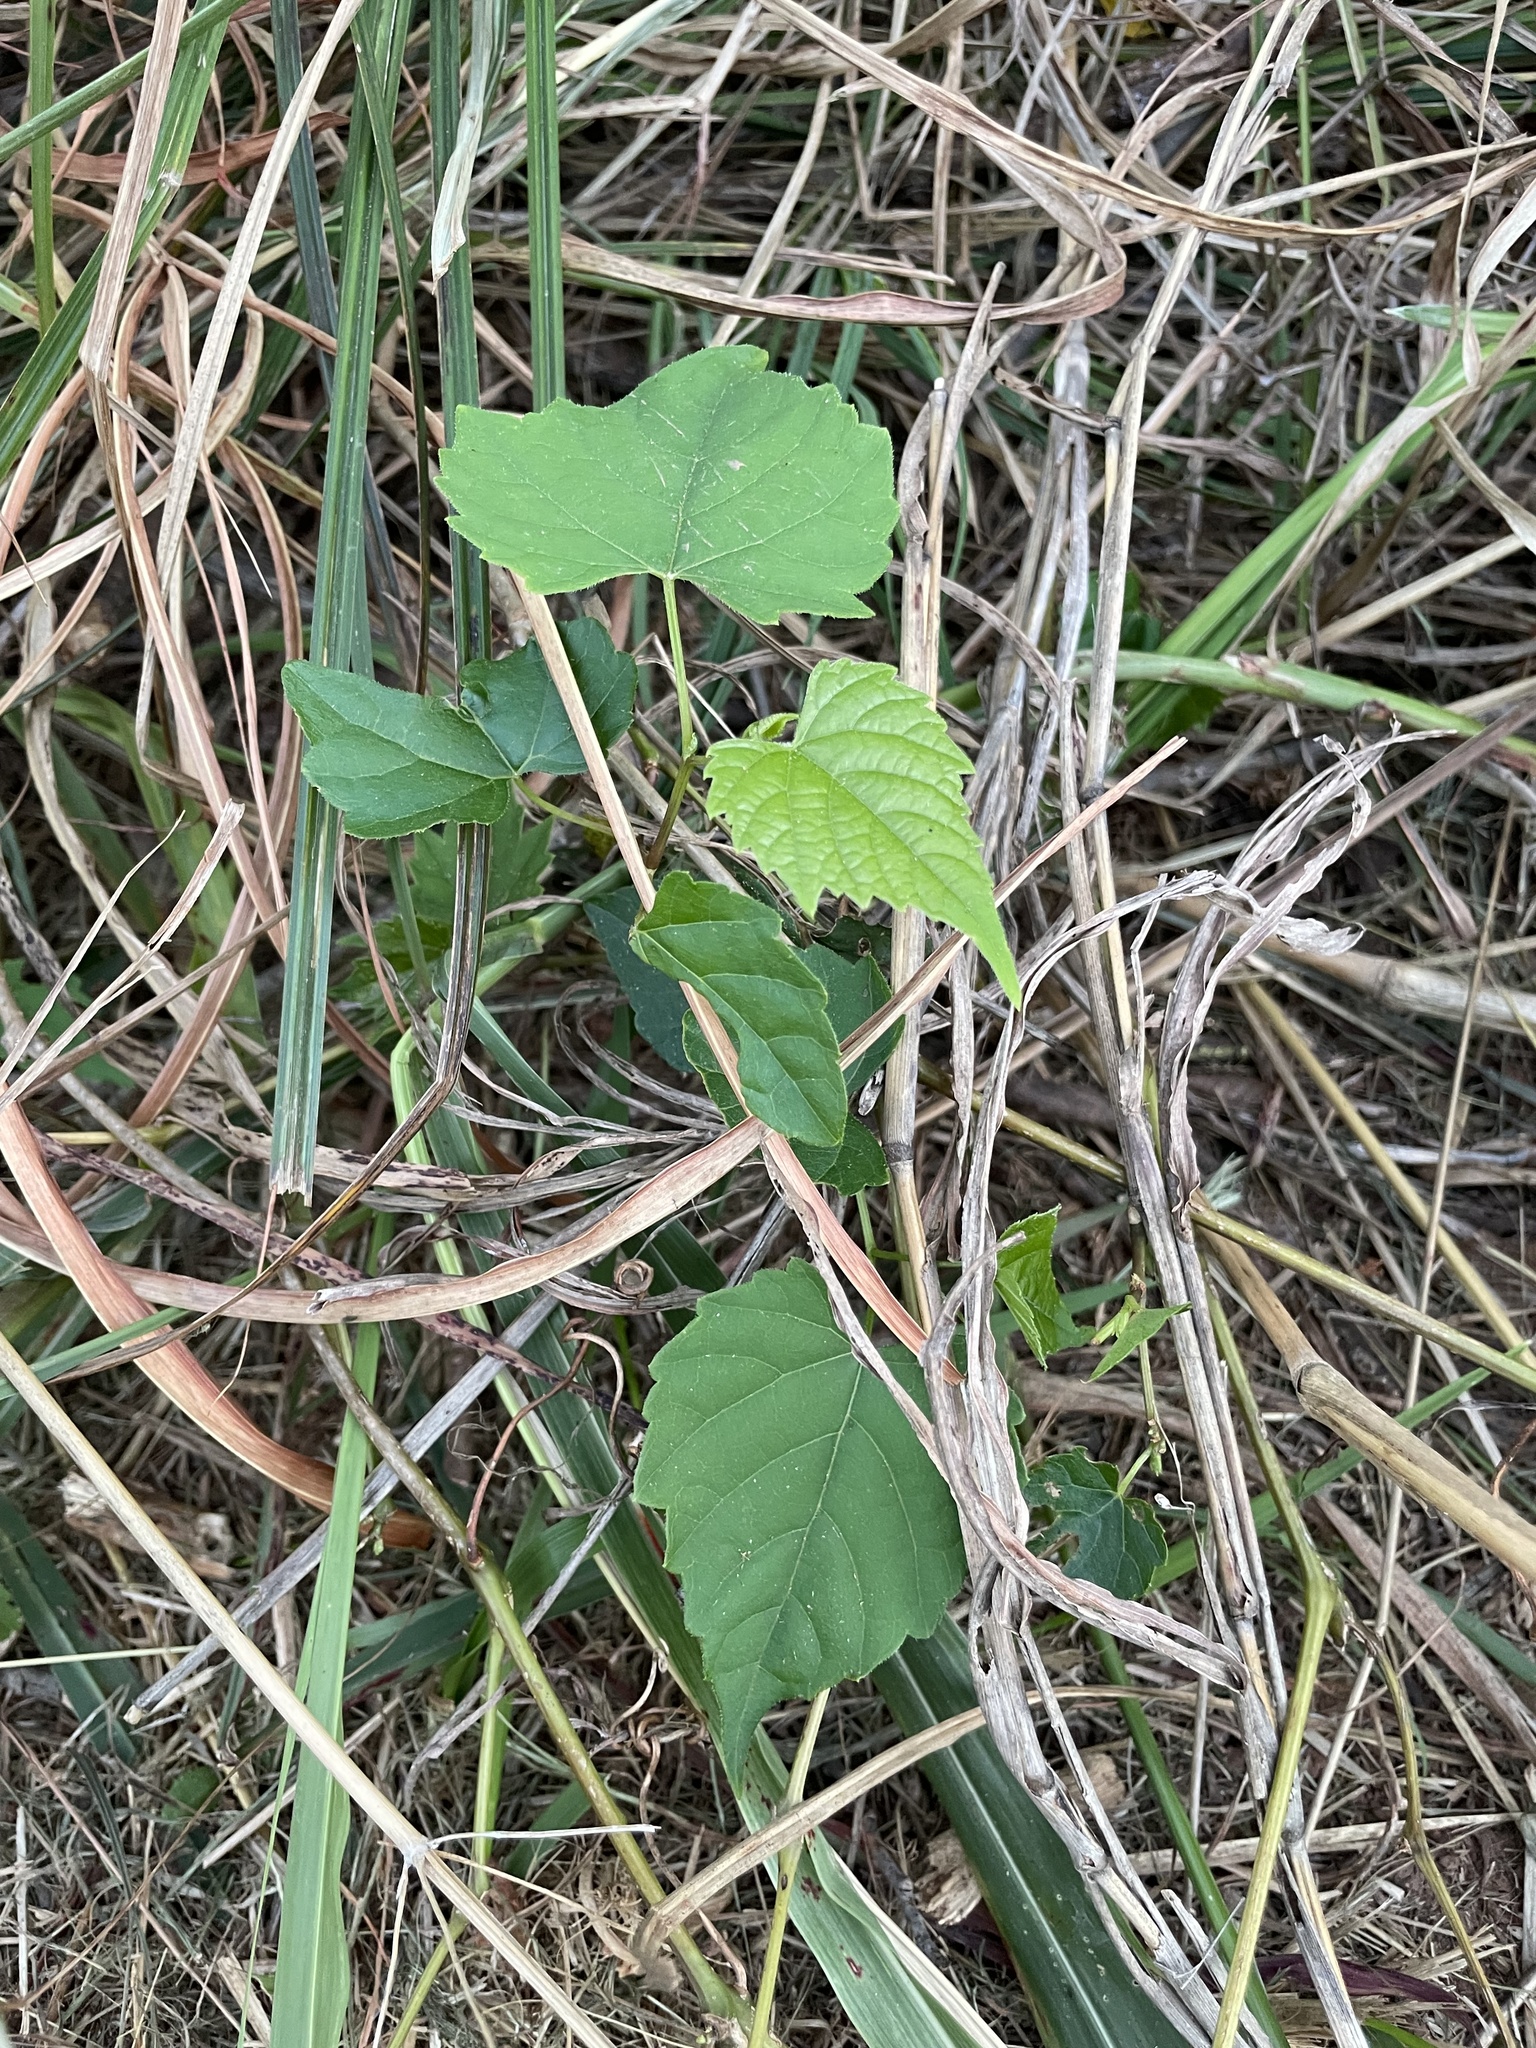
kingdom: Plantae
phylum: Tracheophyta
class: Magnoliopsida
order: Vitales
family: Vitaceae
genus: Ampelopsis
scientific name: Ampelopsis cordata
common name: Heart-leaf ampelopsis
